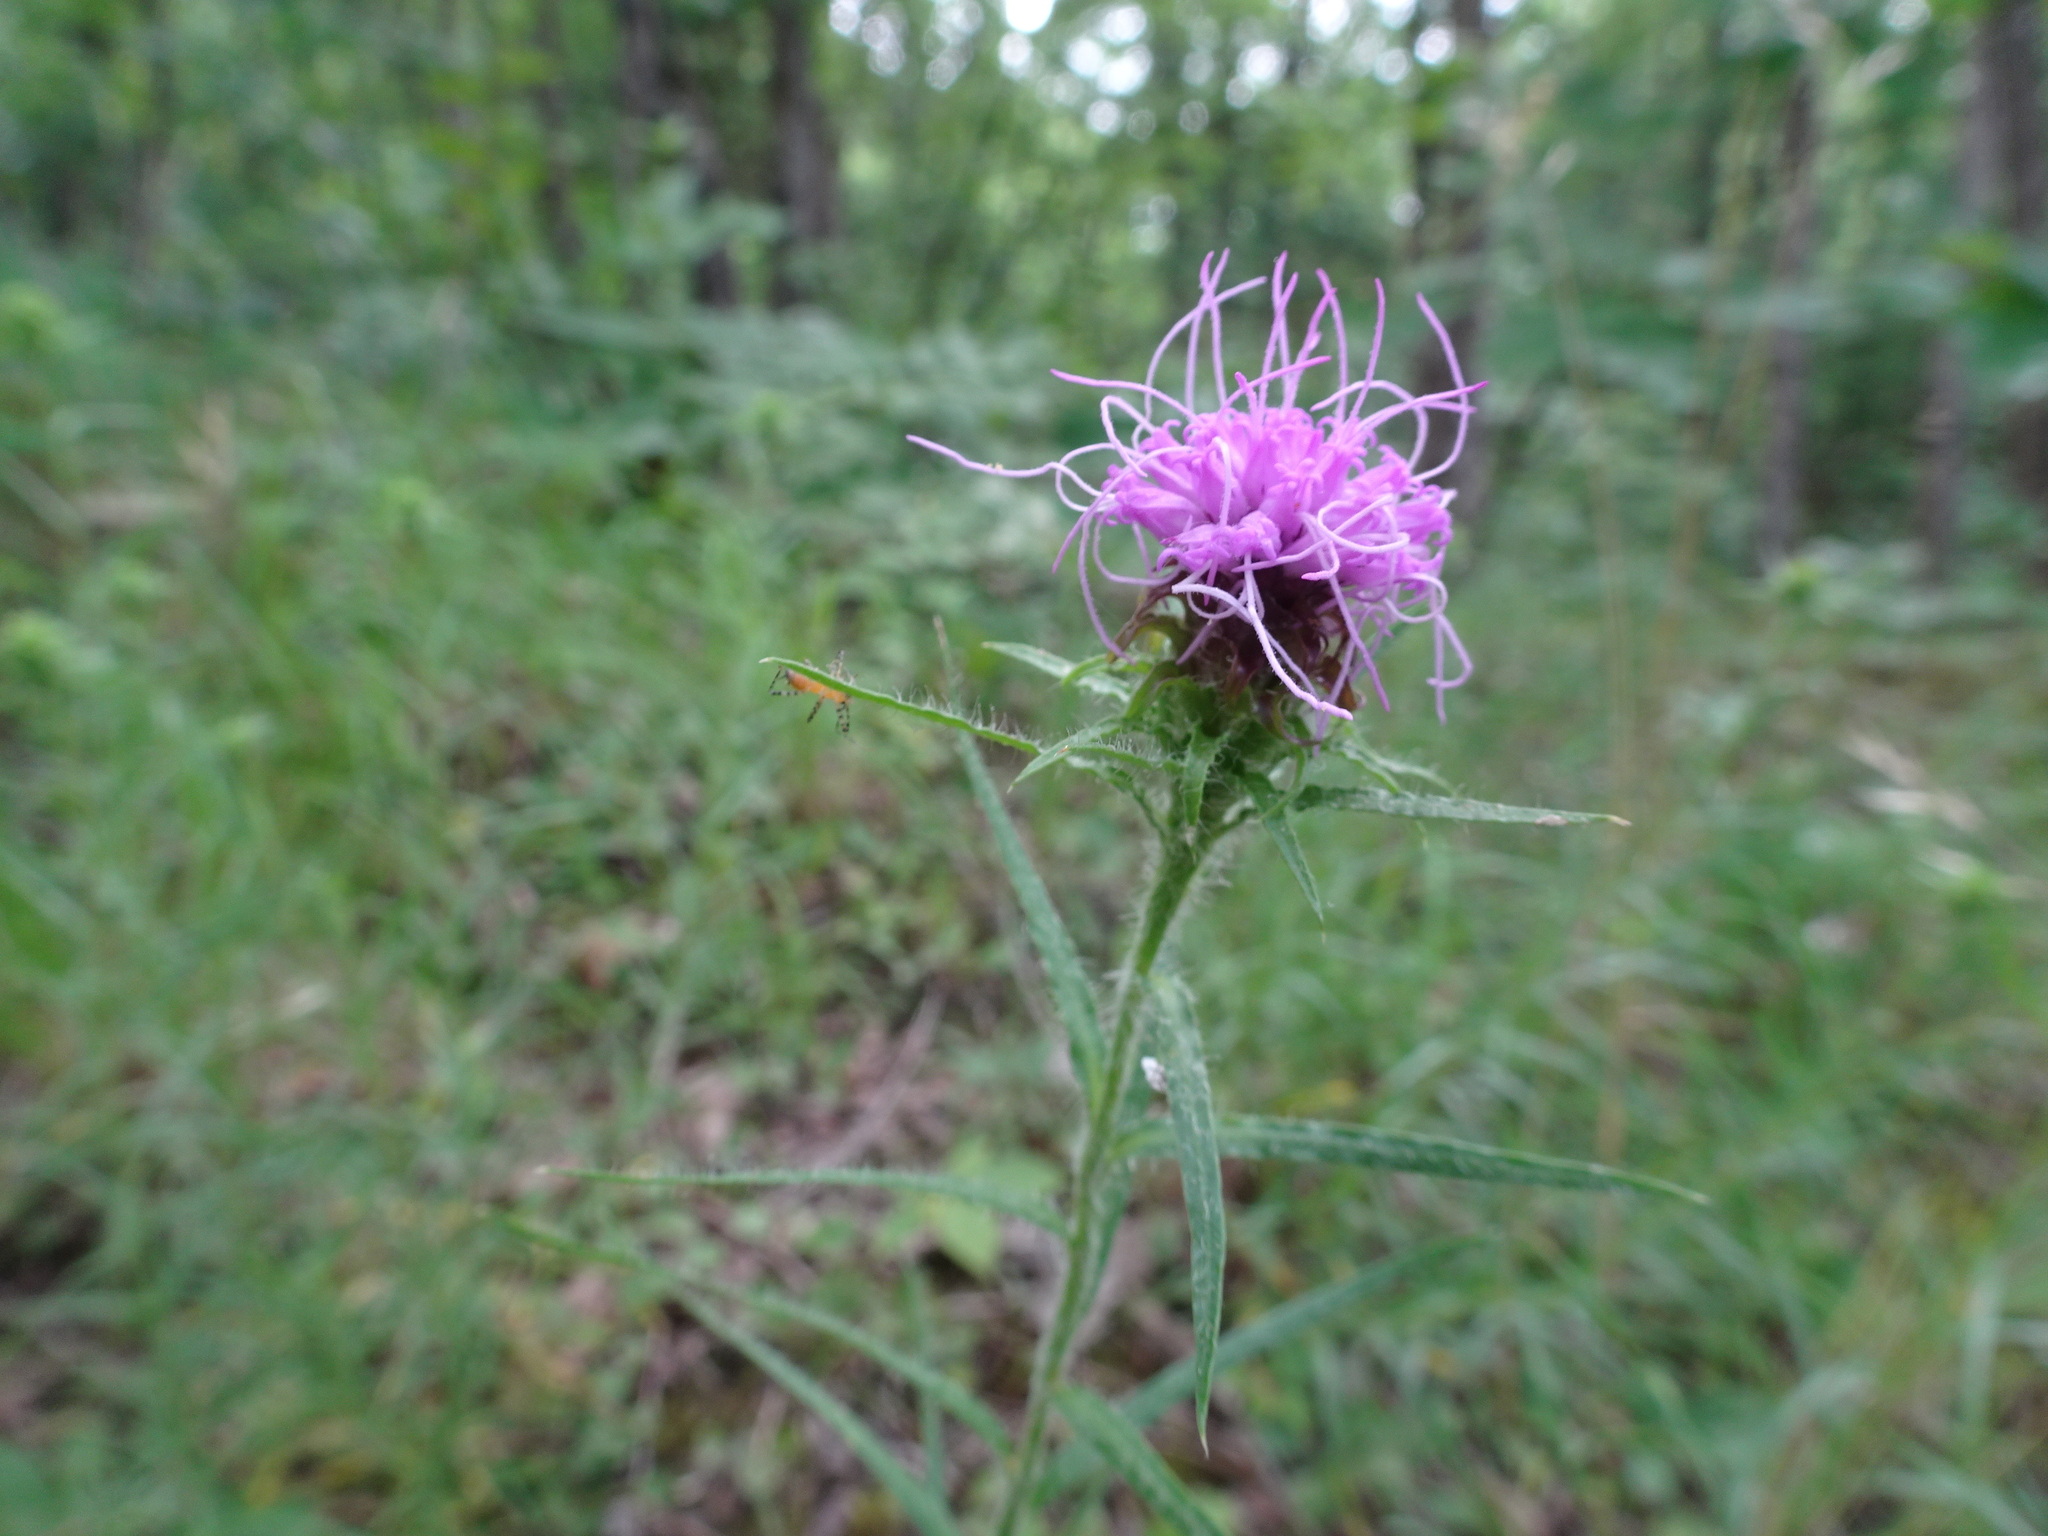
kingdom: Plantae
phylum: Tracheophyta
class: Magnoliopsida
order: Asterales
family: Asteraceae
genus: Liatris
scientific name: Liatris hirsuta
